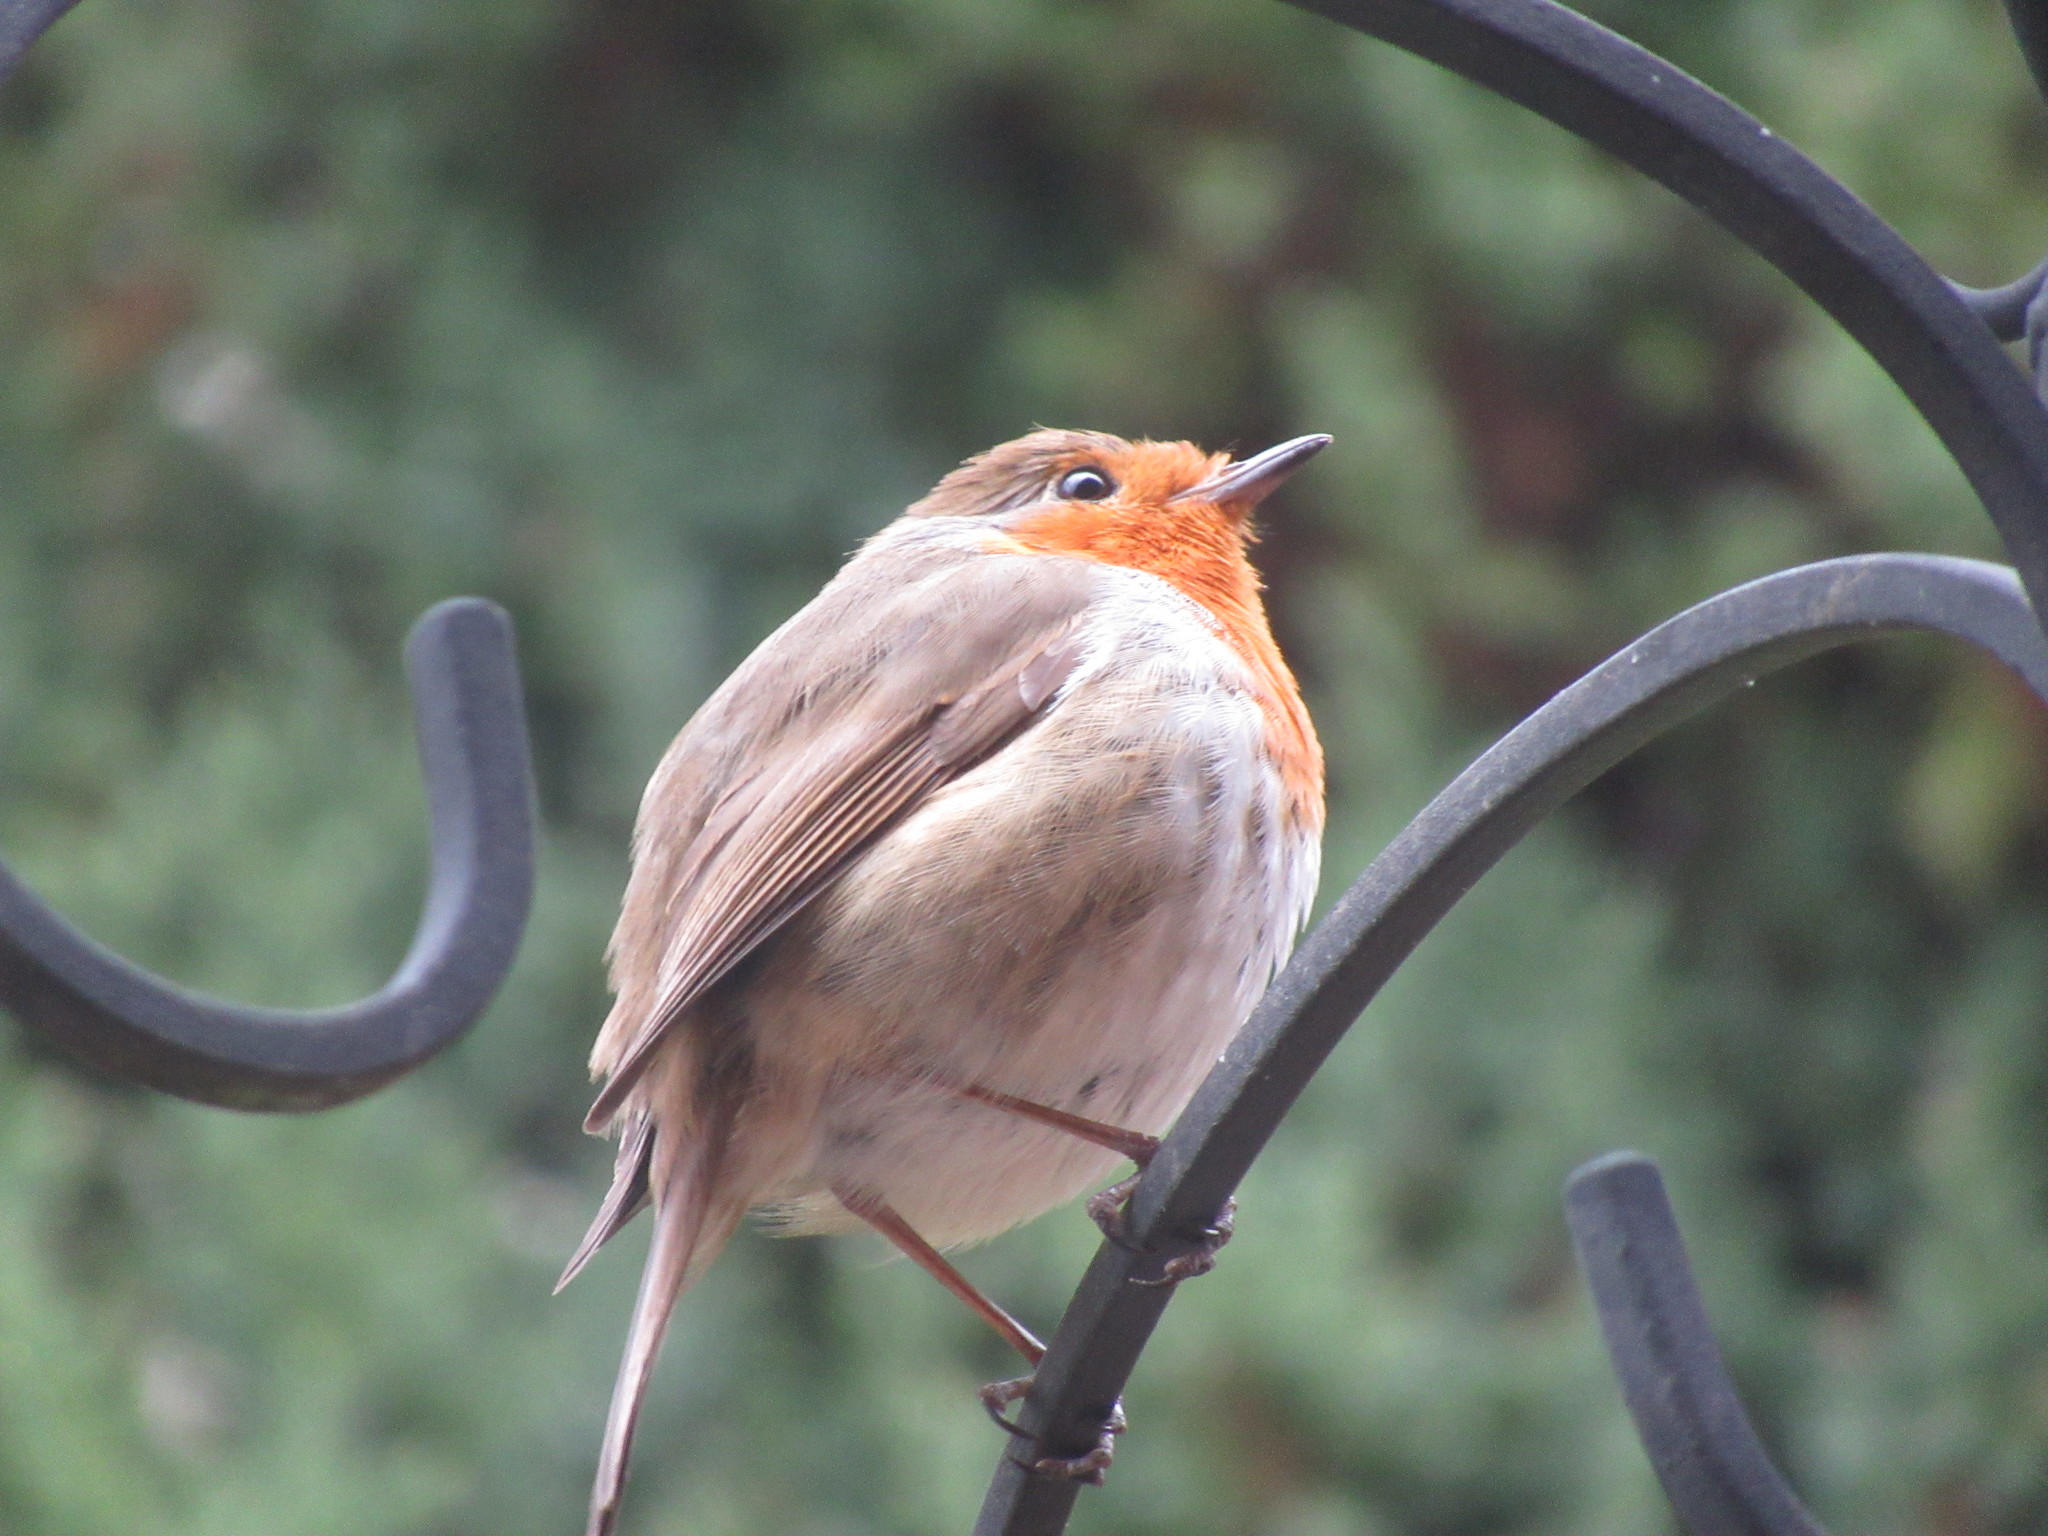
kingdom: Animalia
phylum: Chordata
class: Aves
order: Passeriformes
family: Muscicapidae
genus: Erithacus
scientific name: Erithacus rubecula
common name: European robin
